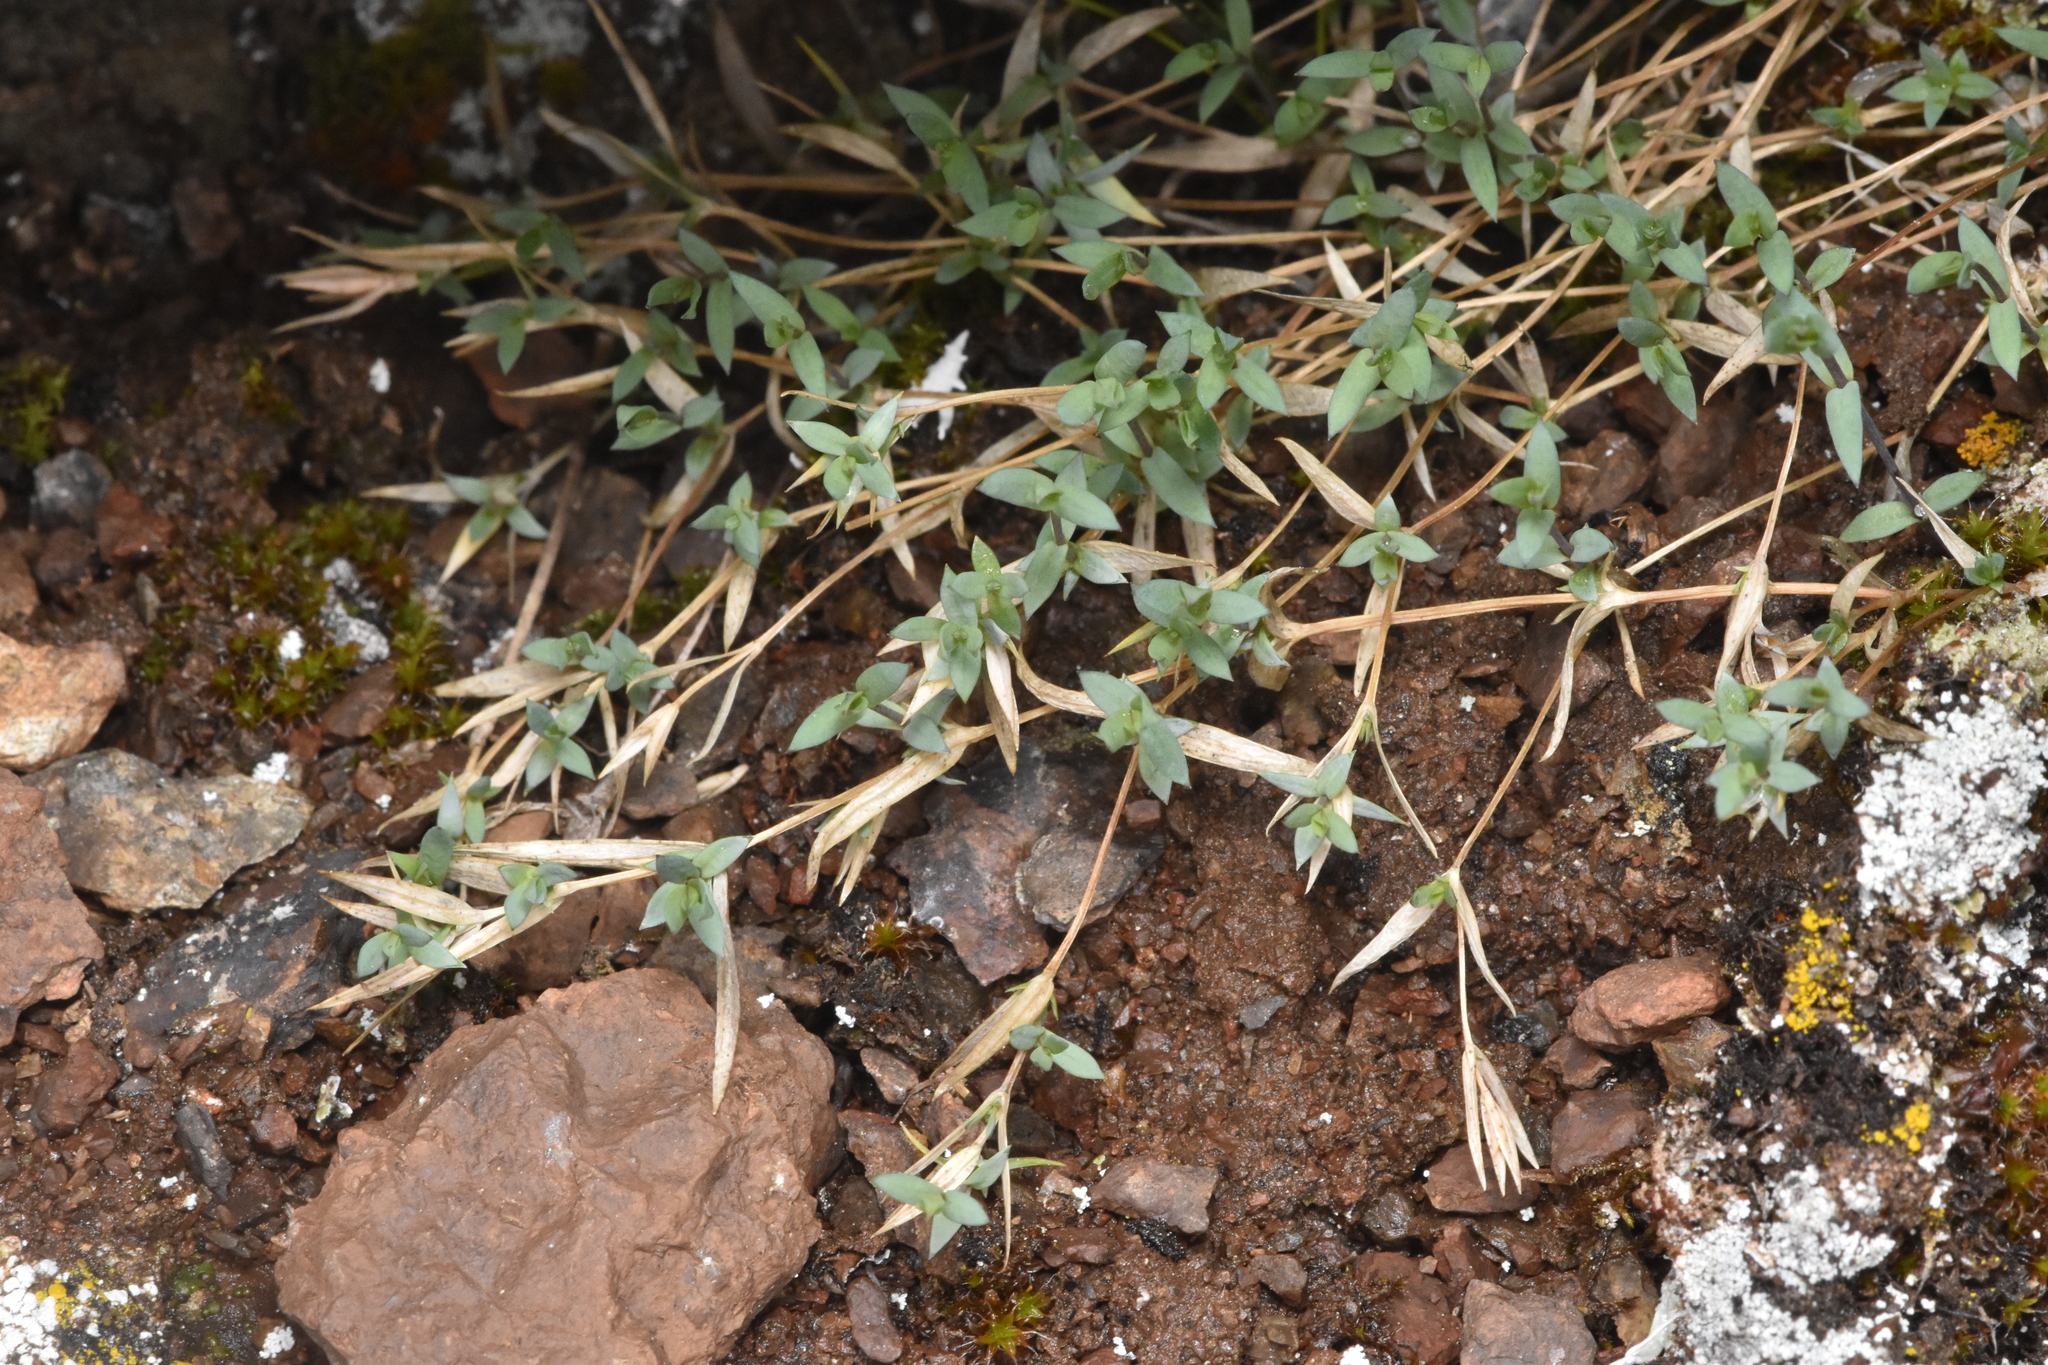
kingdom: Plantae
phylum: Tracheophyta
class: Magnoliopsida
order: Caryophyllales
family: Caryophyllaceae
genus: Stellaria
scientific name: Stellaria longipes
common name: Goldie's starwort
